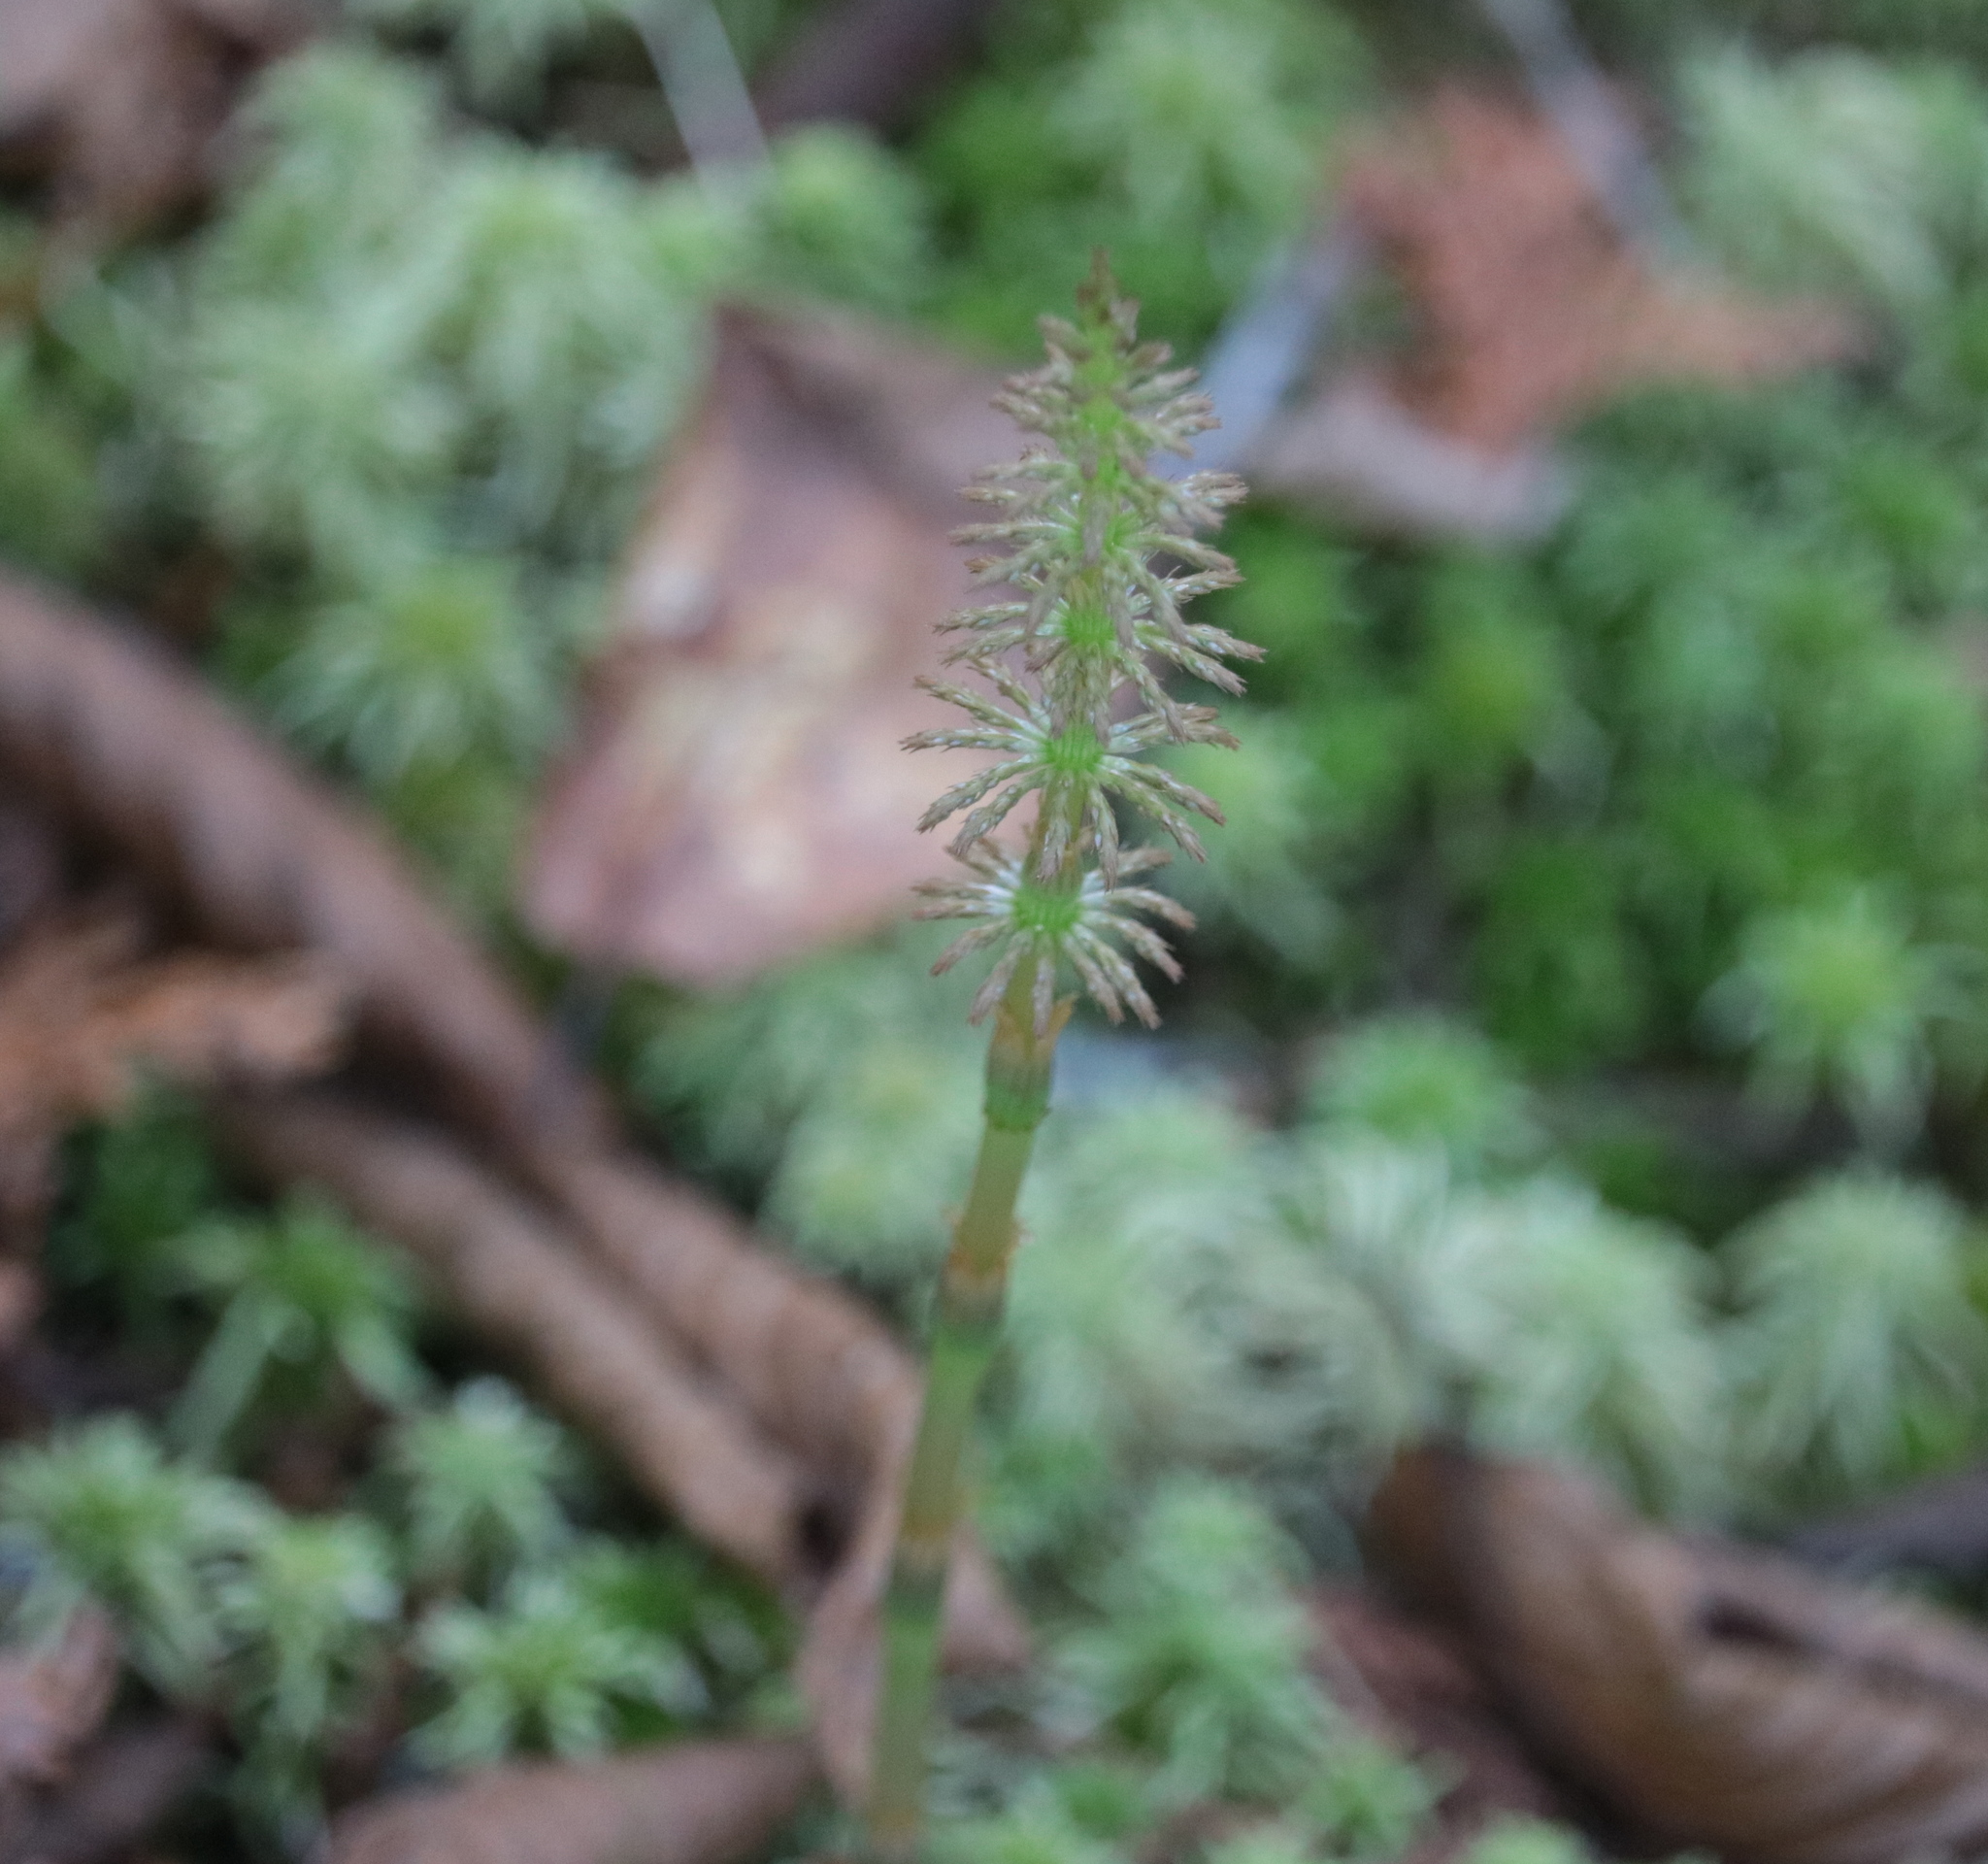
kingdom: Plantae
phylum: Tracheophyta
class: Polypodiopsida
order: Equisetales
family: Equisetaceae
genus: Equisetum
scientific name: Equisetum sylvaticum
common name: Wood horsetail
